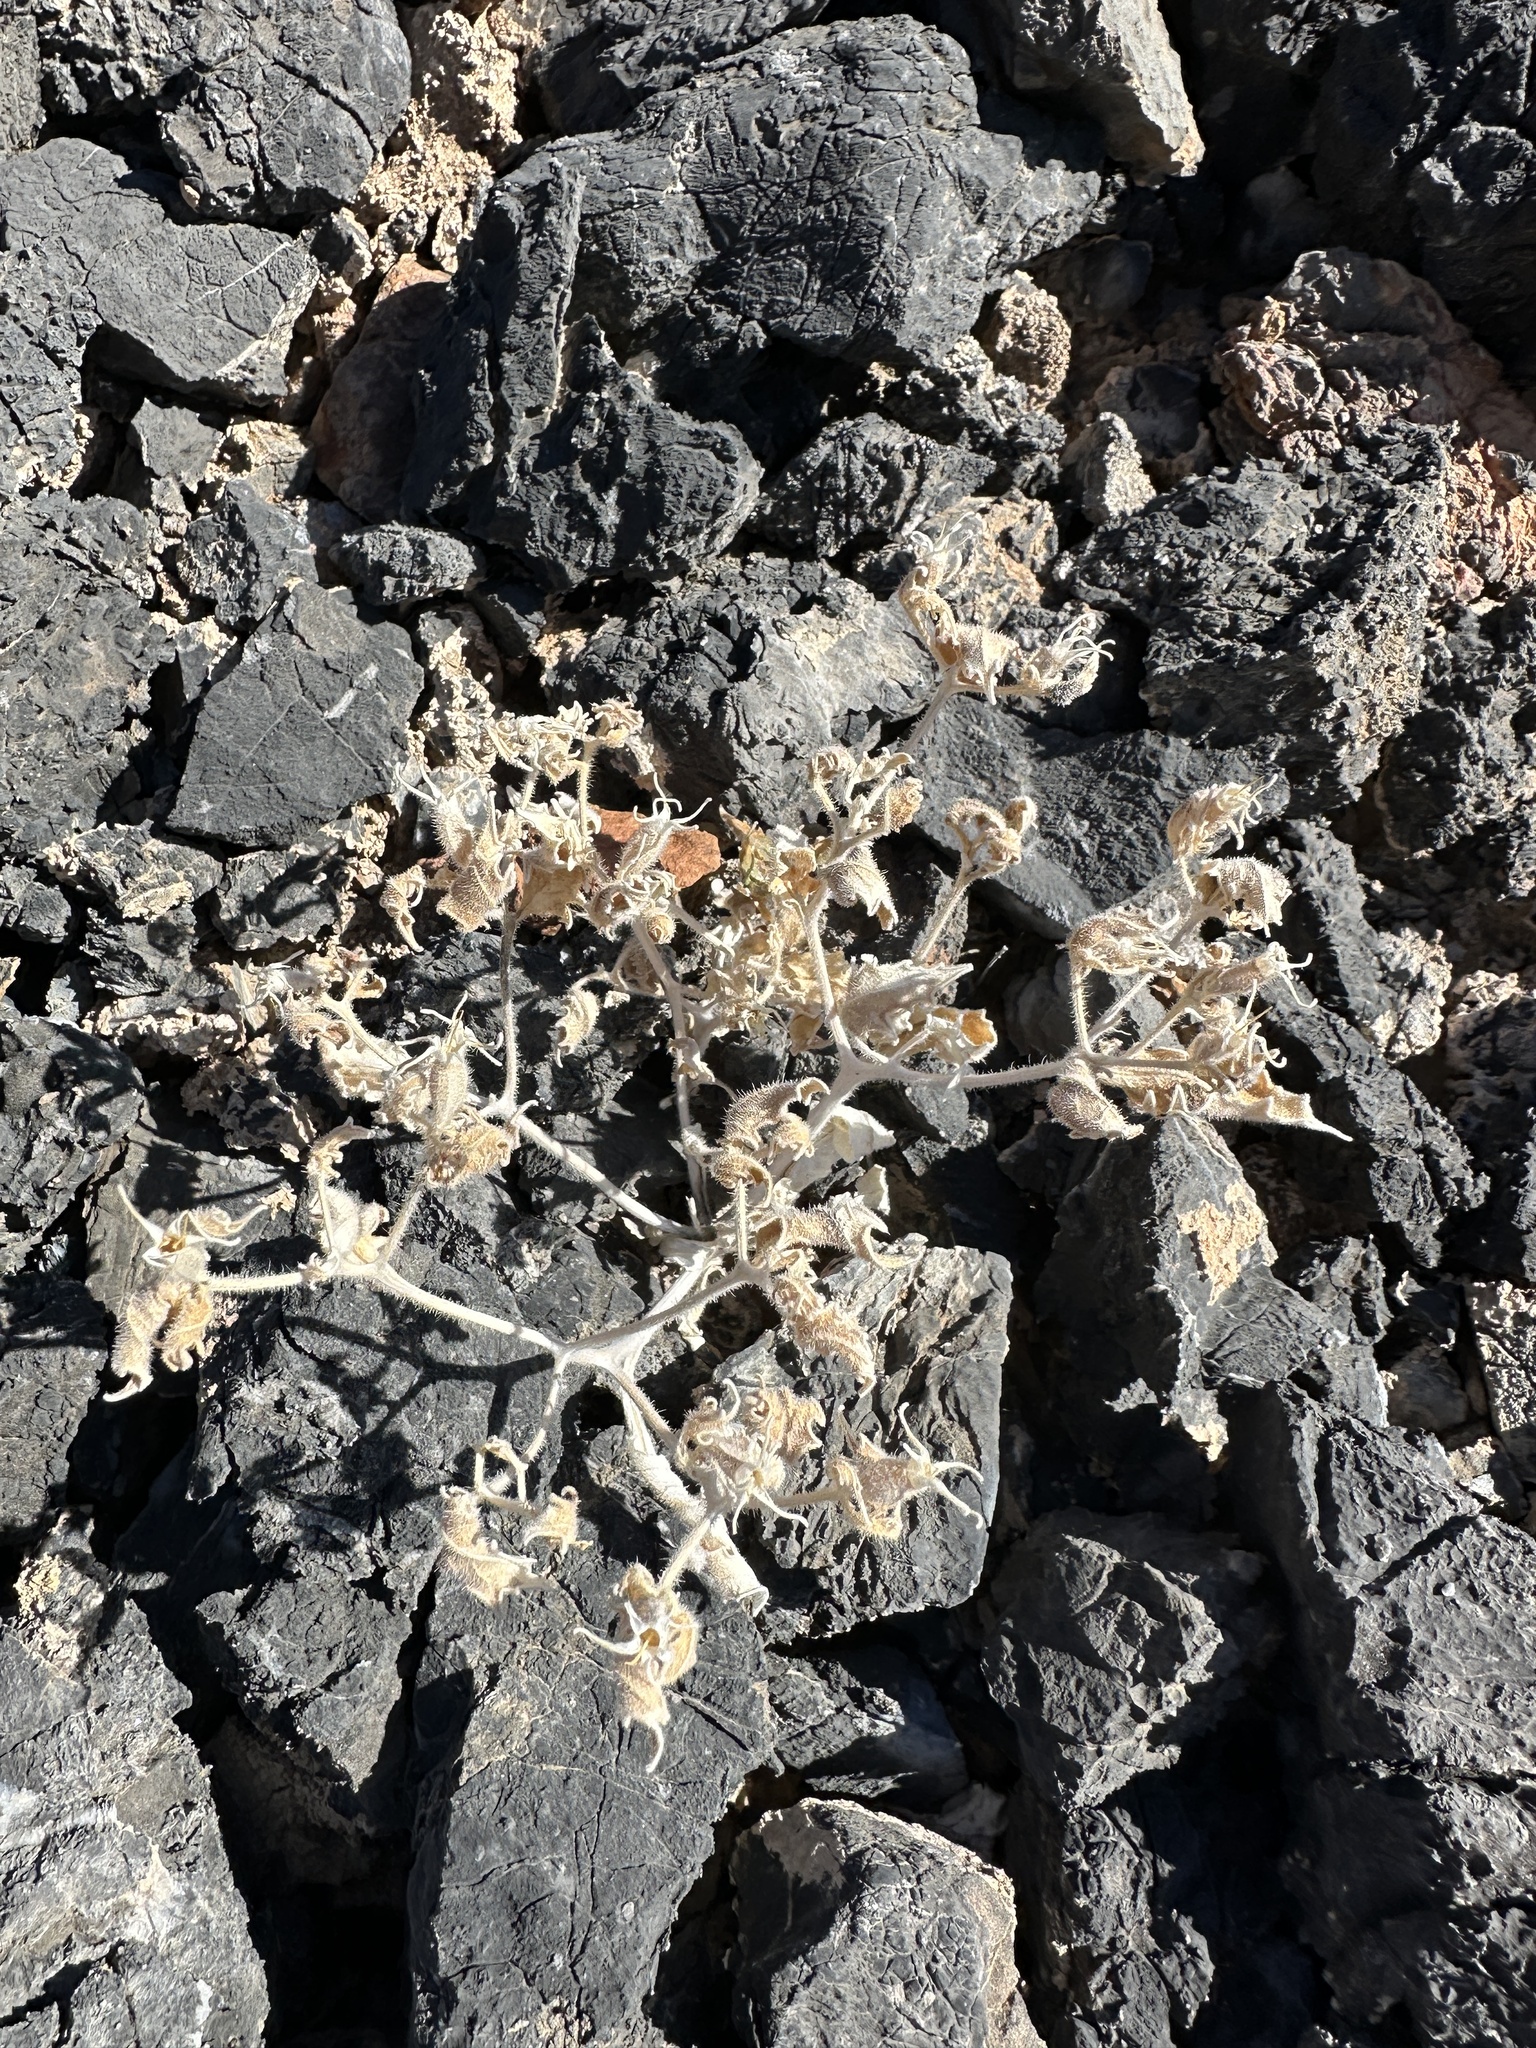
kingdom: Plantae
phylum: Tracheophyta
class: Magnoliopsida
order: Cornales
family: Loasaceae
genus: Mentzelia
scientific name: Mentzelia reflexa
